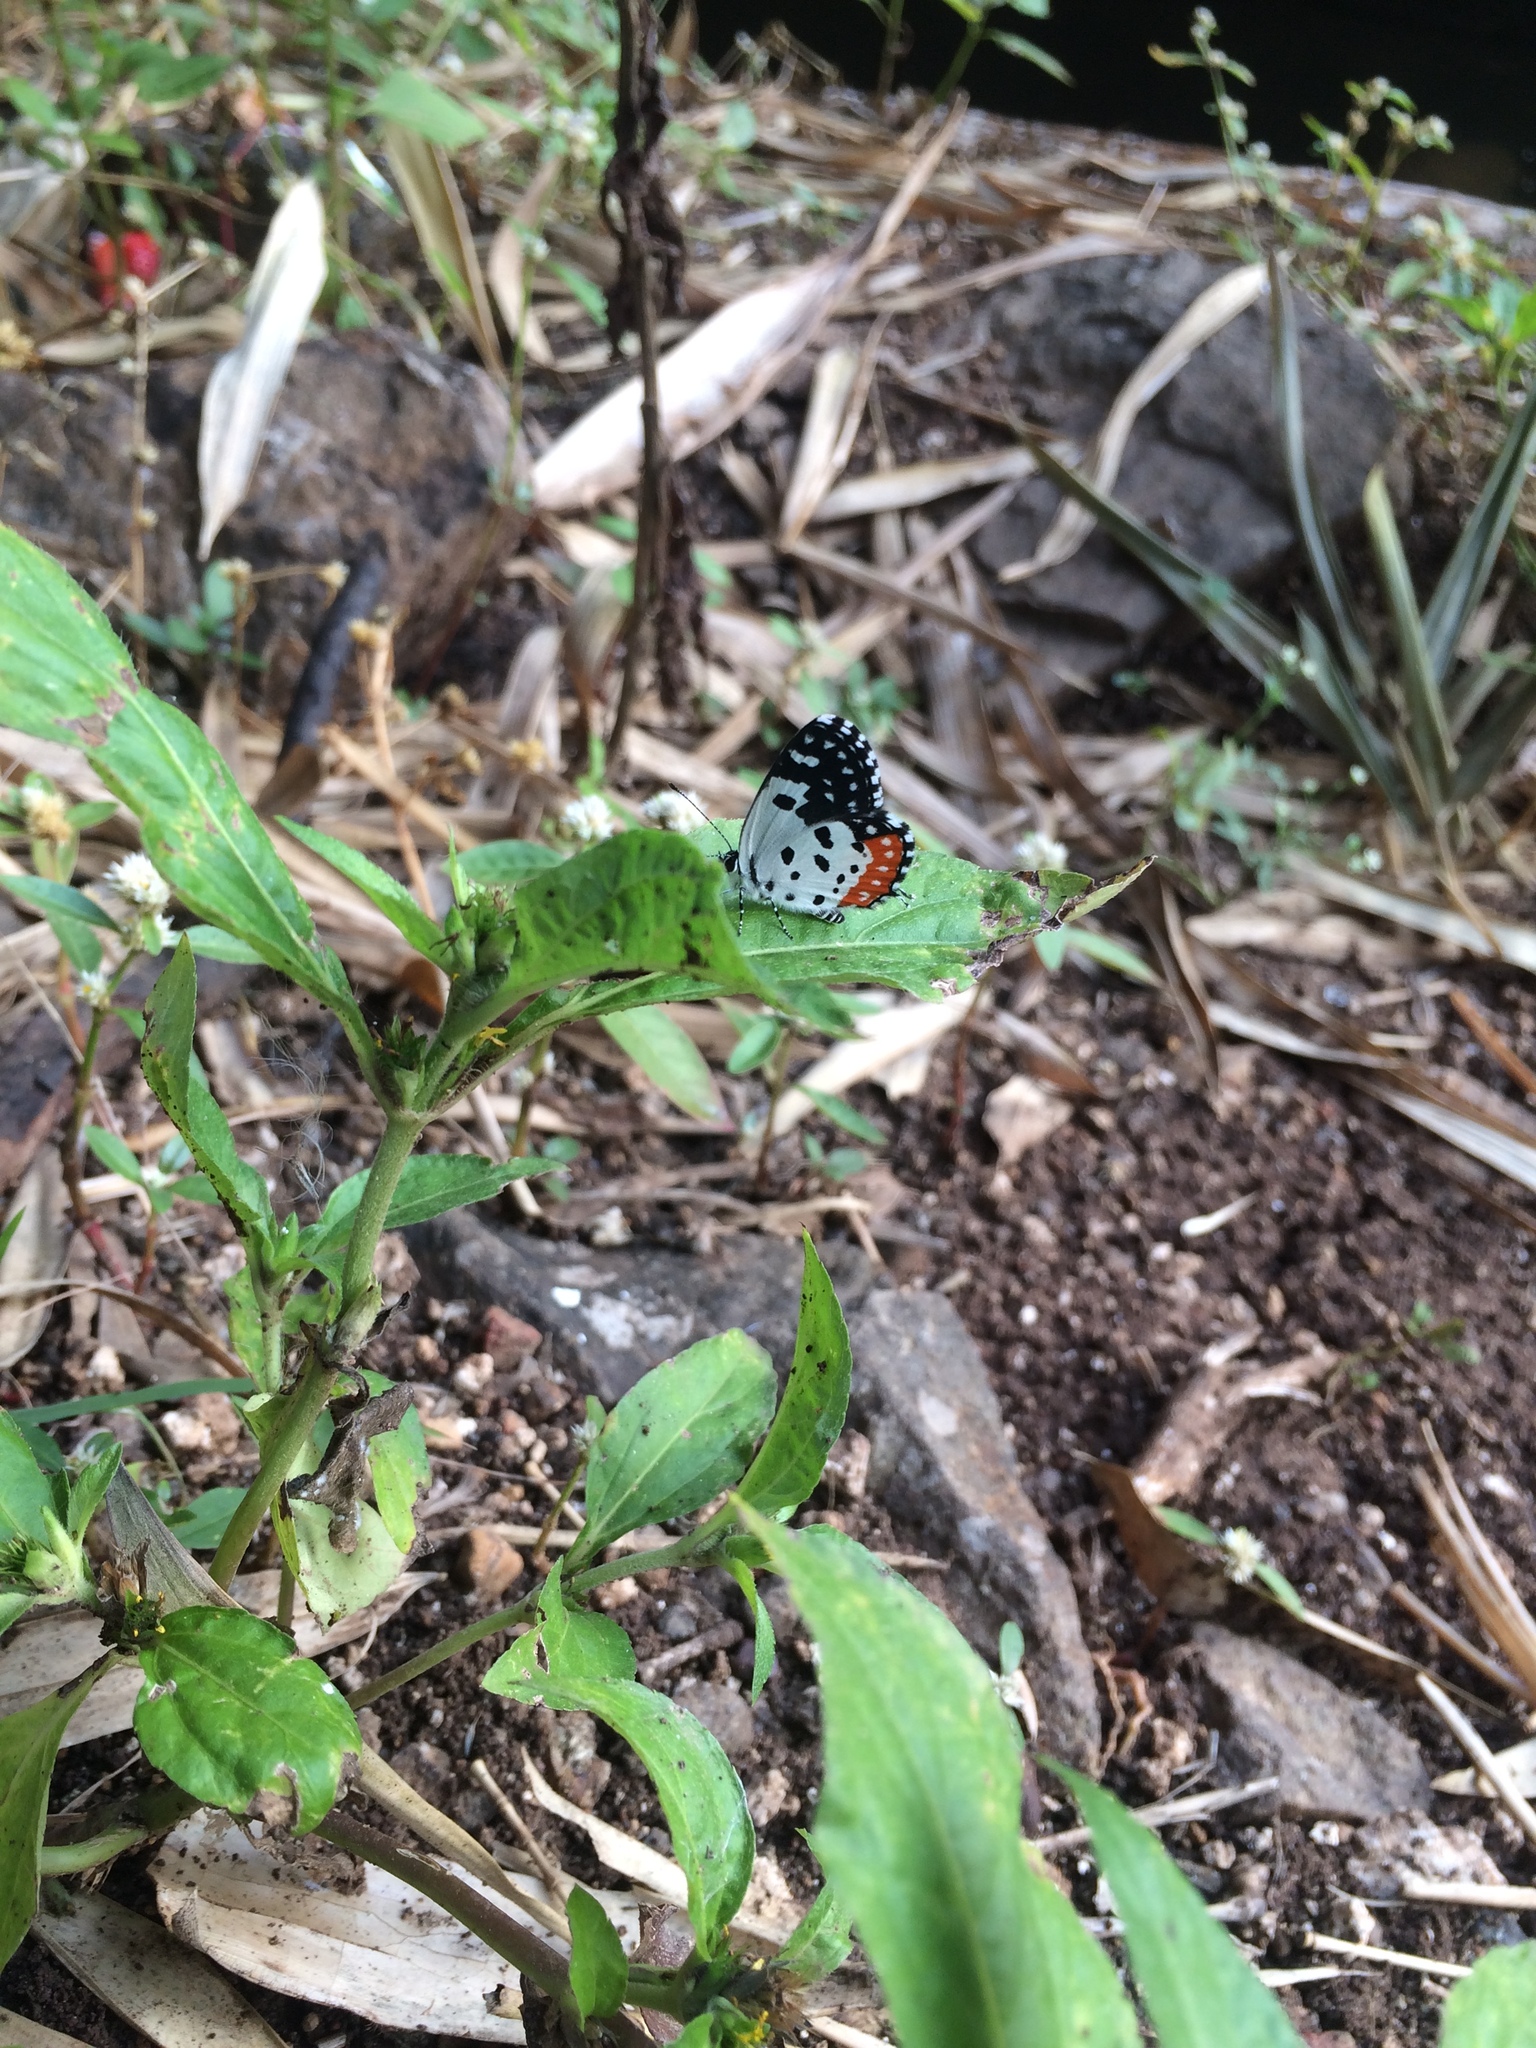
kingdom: Animalia
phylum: Arthropoda
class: Insecta
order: Lepidoptera
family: Lycaenidae
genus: Talicada
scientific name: Talicada nyseus
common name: Red pierrot
